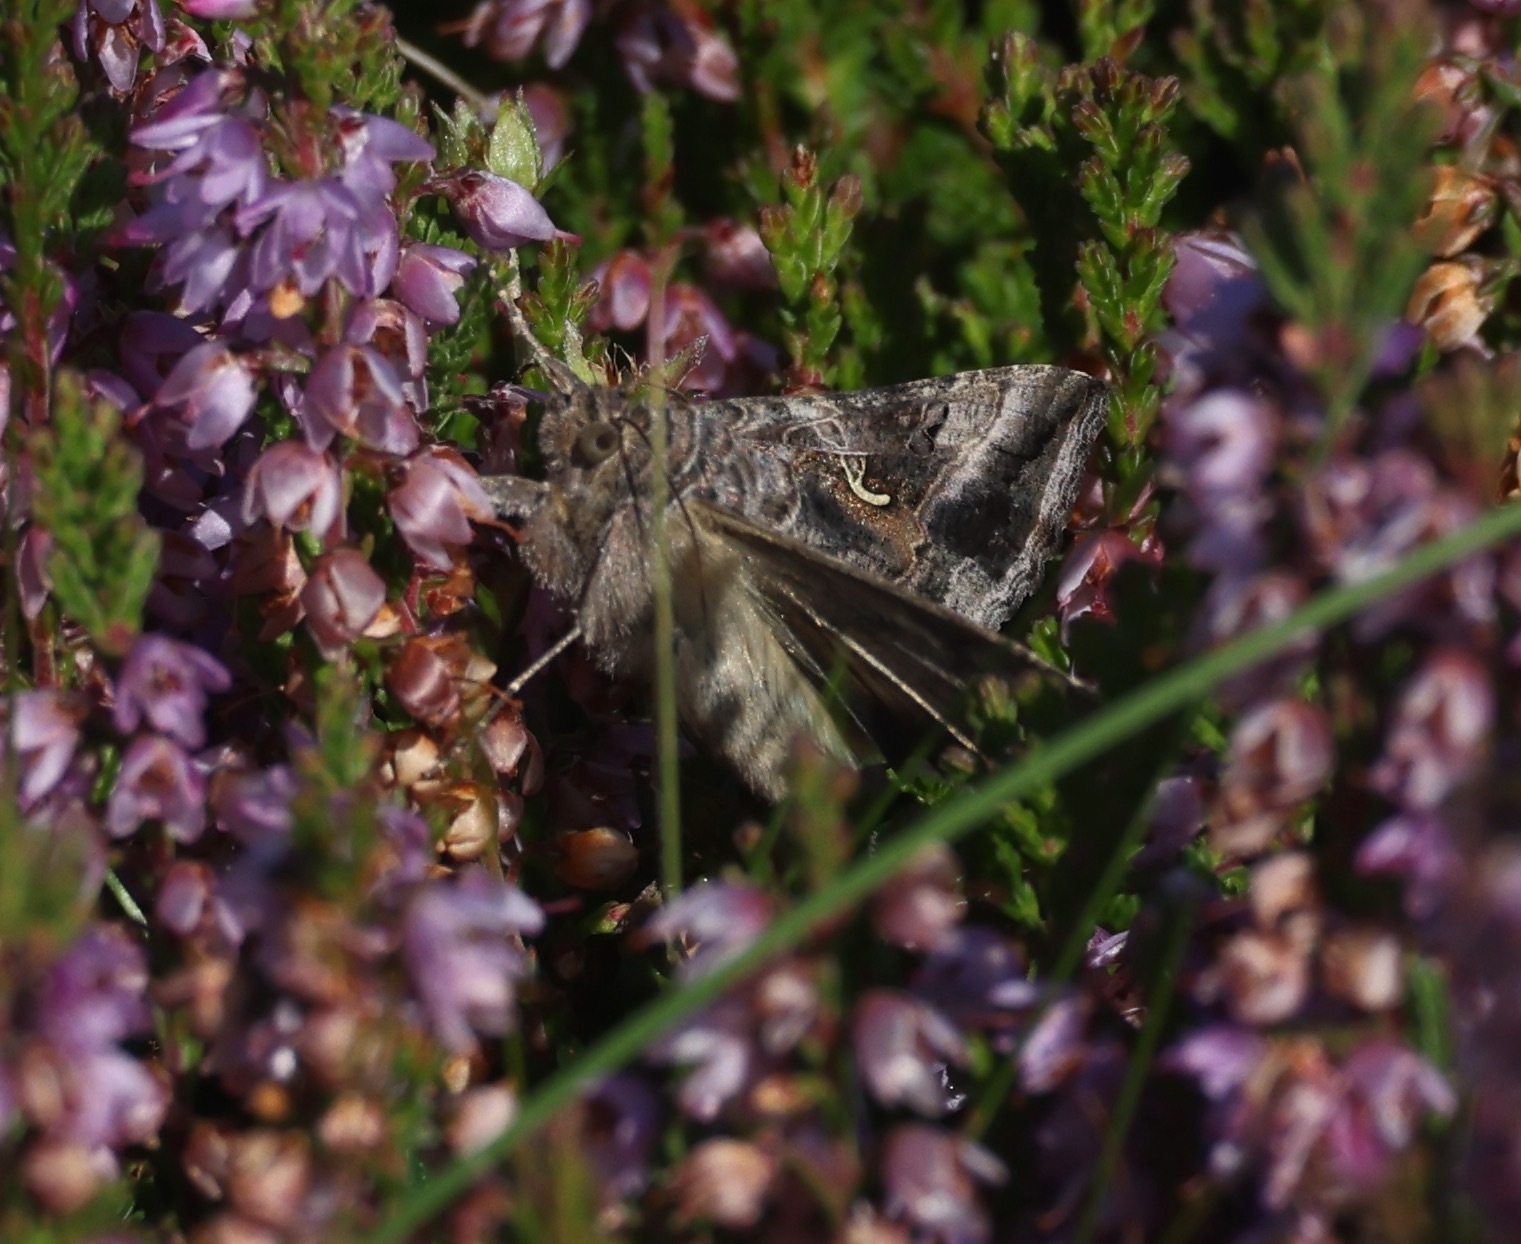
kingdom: Animalia
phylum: Arthropoda
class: Insecta
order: Lepidoptera
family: Noctuidae
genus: Autographa
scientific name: Autographa gamma
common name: Silver y
